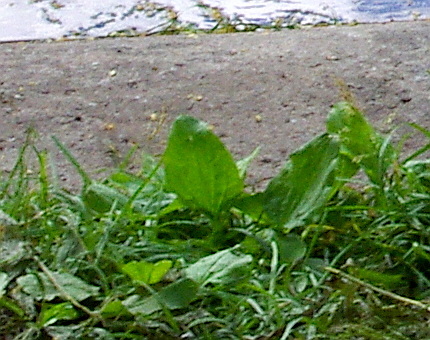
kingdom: Plantae
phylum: Tracheophyta
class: Magnoliopsida
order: Lamiales
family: Plantaginaceae
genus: Plantago
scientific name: Plantago major
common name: Common plantain
